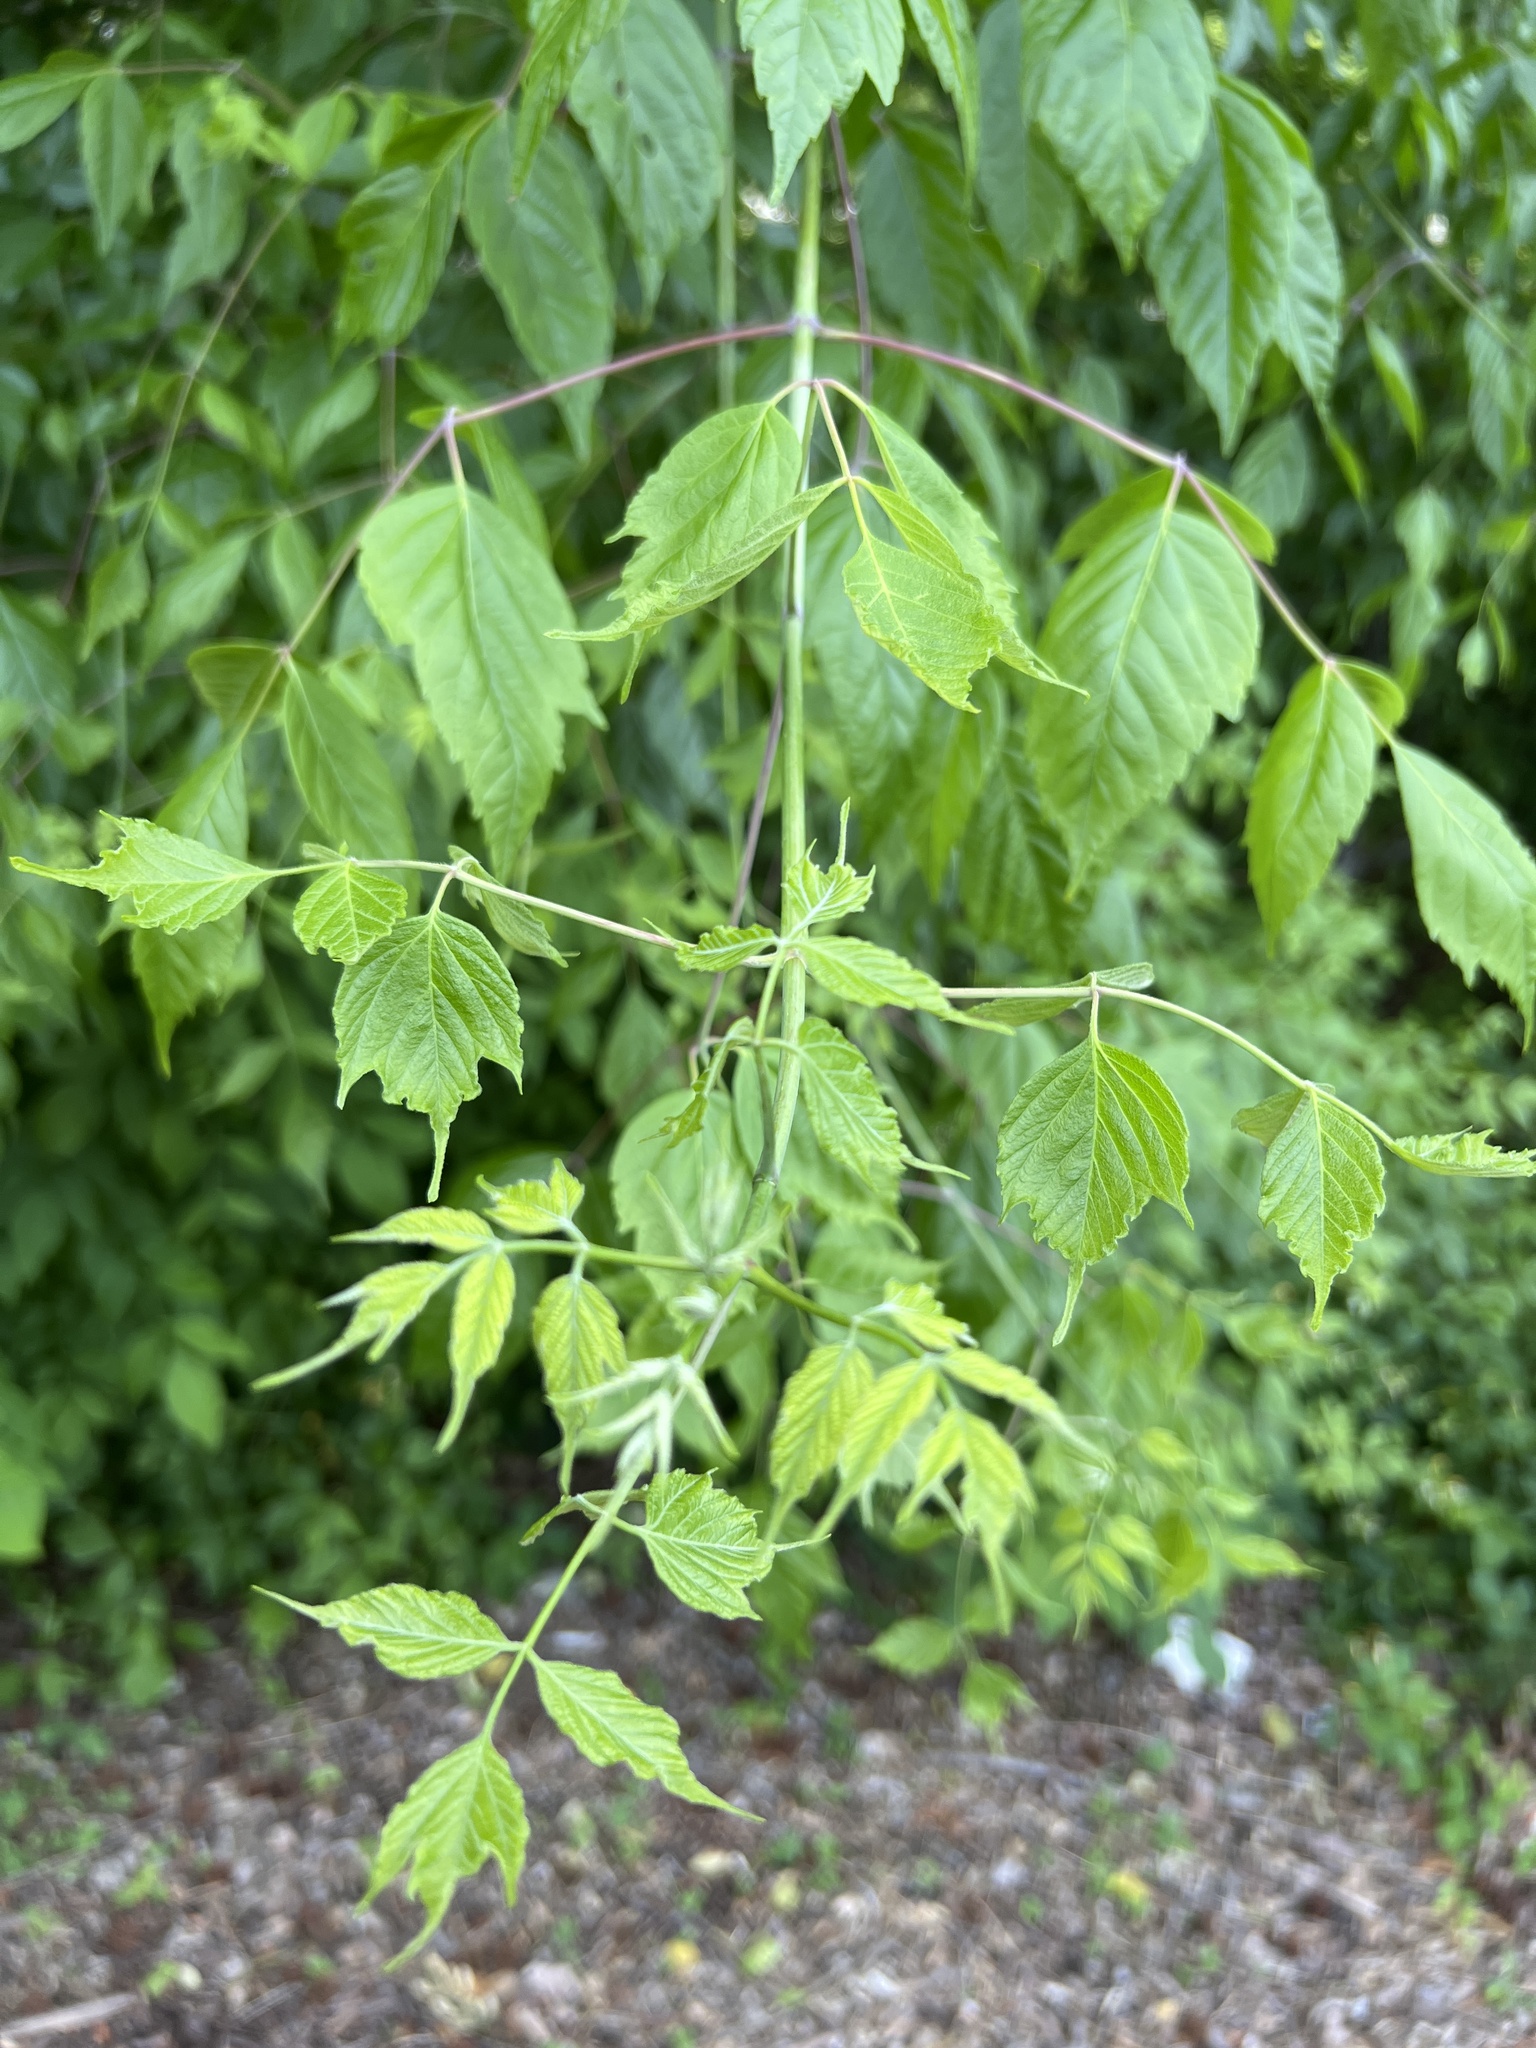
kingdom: Plantae
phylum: Tracheophyta
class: Magnoliopsida
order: Sapindales
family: Sapindaceae
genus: Acer
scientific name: Acer negundo
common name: Ashleaf maple
